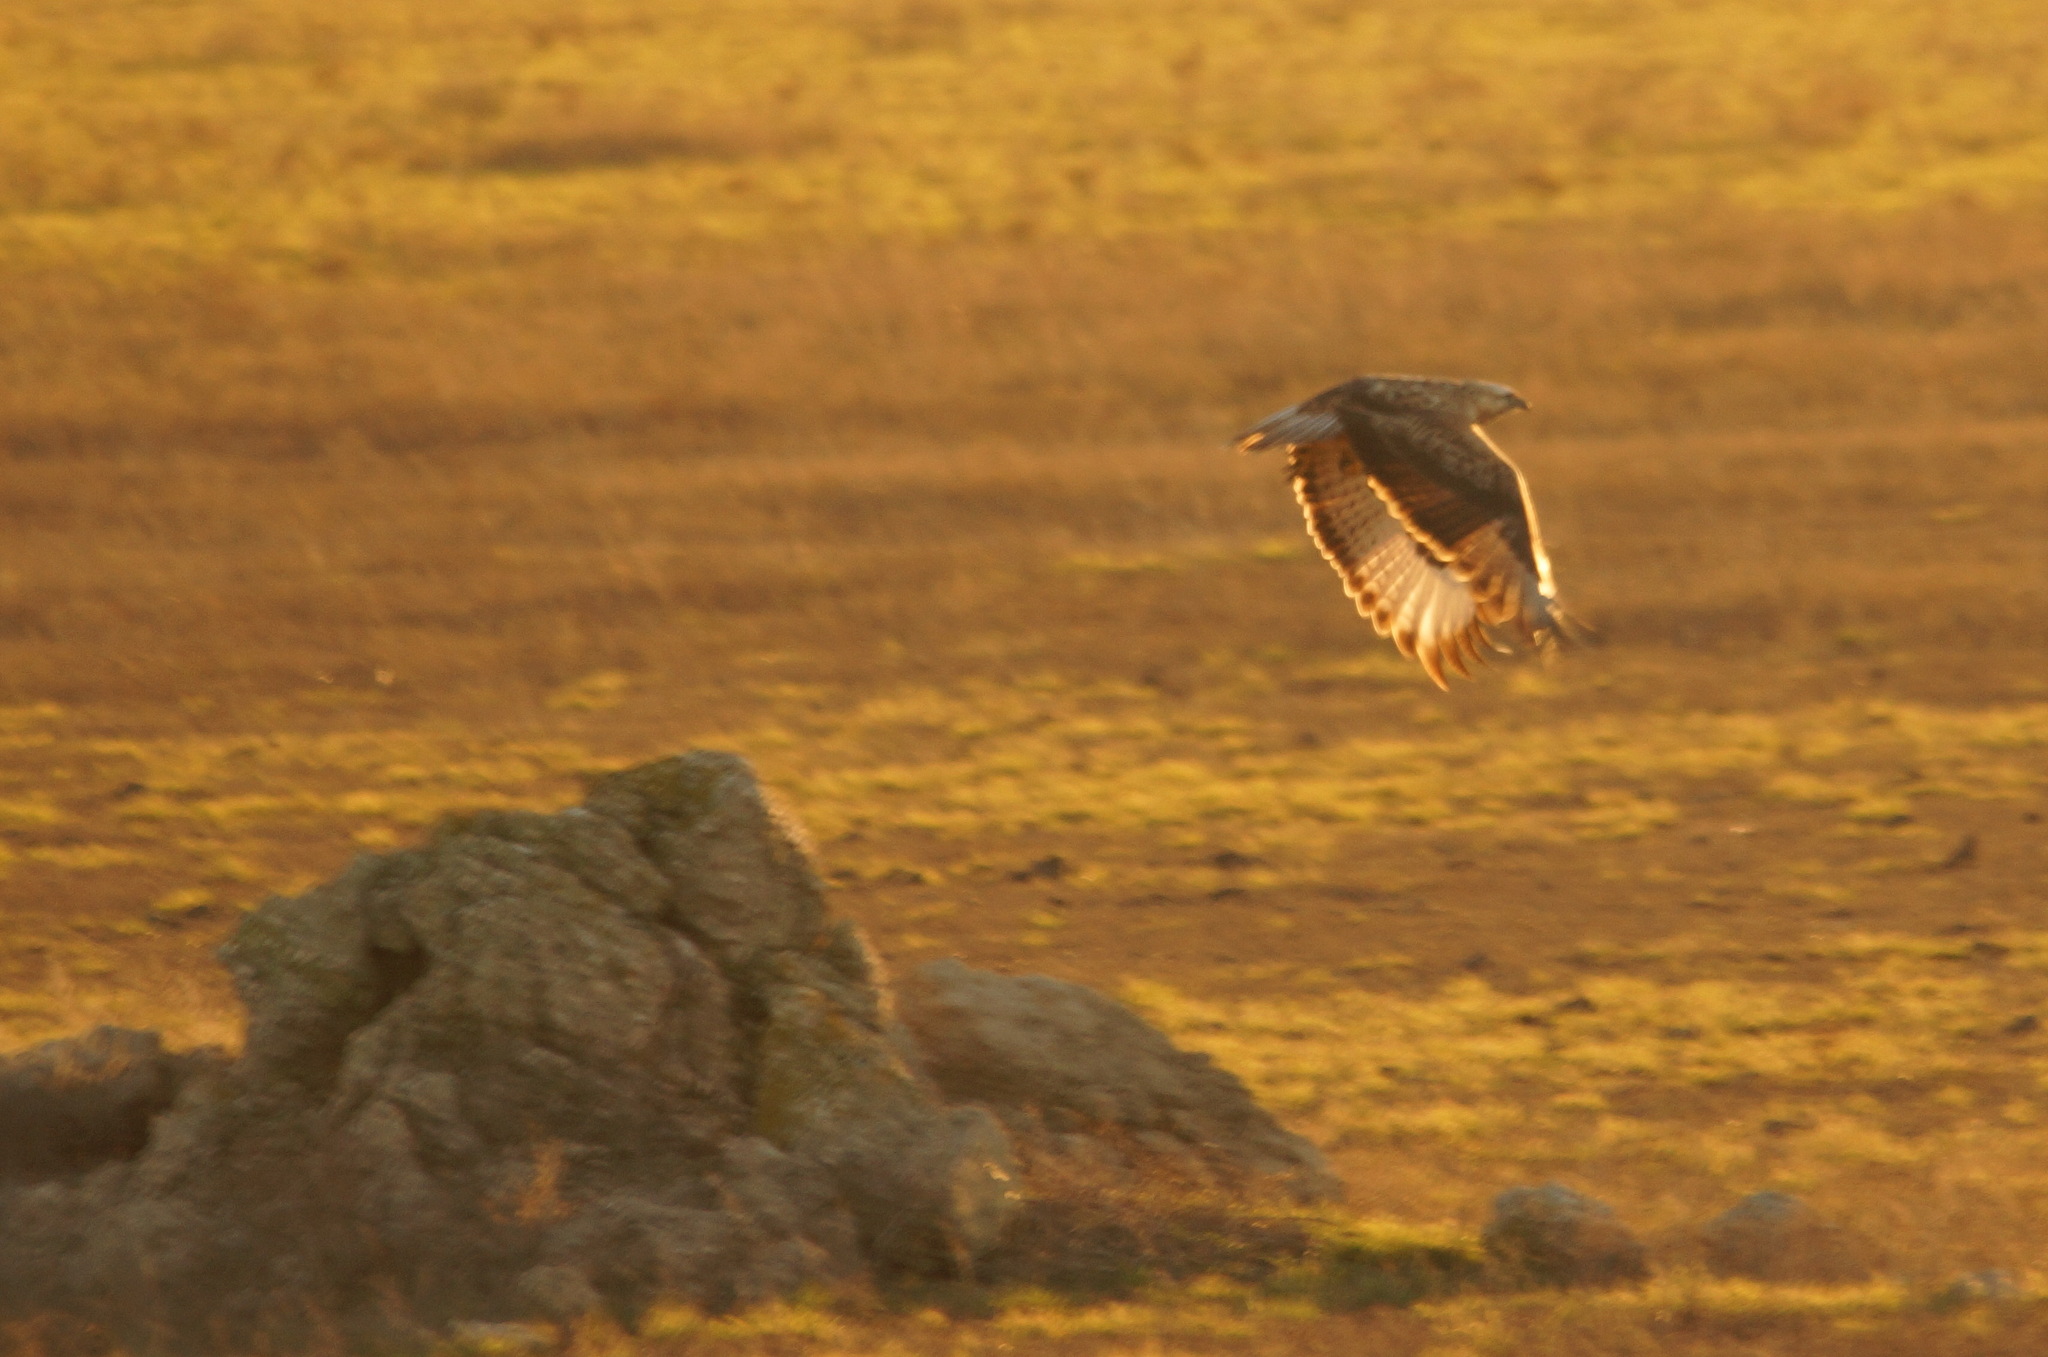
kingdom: Animalia
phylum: Chordata
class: Aves
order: Accipitriformes
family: Accipitridae
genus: Buteo
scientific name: Buteo rufinus
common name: Long-legged buzzard
